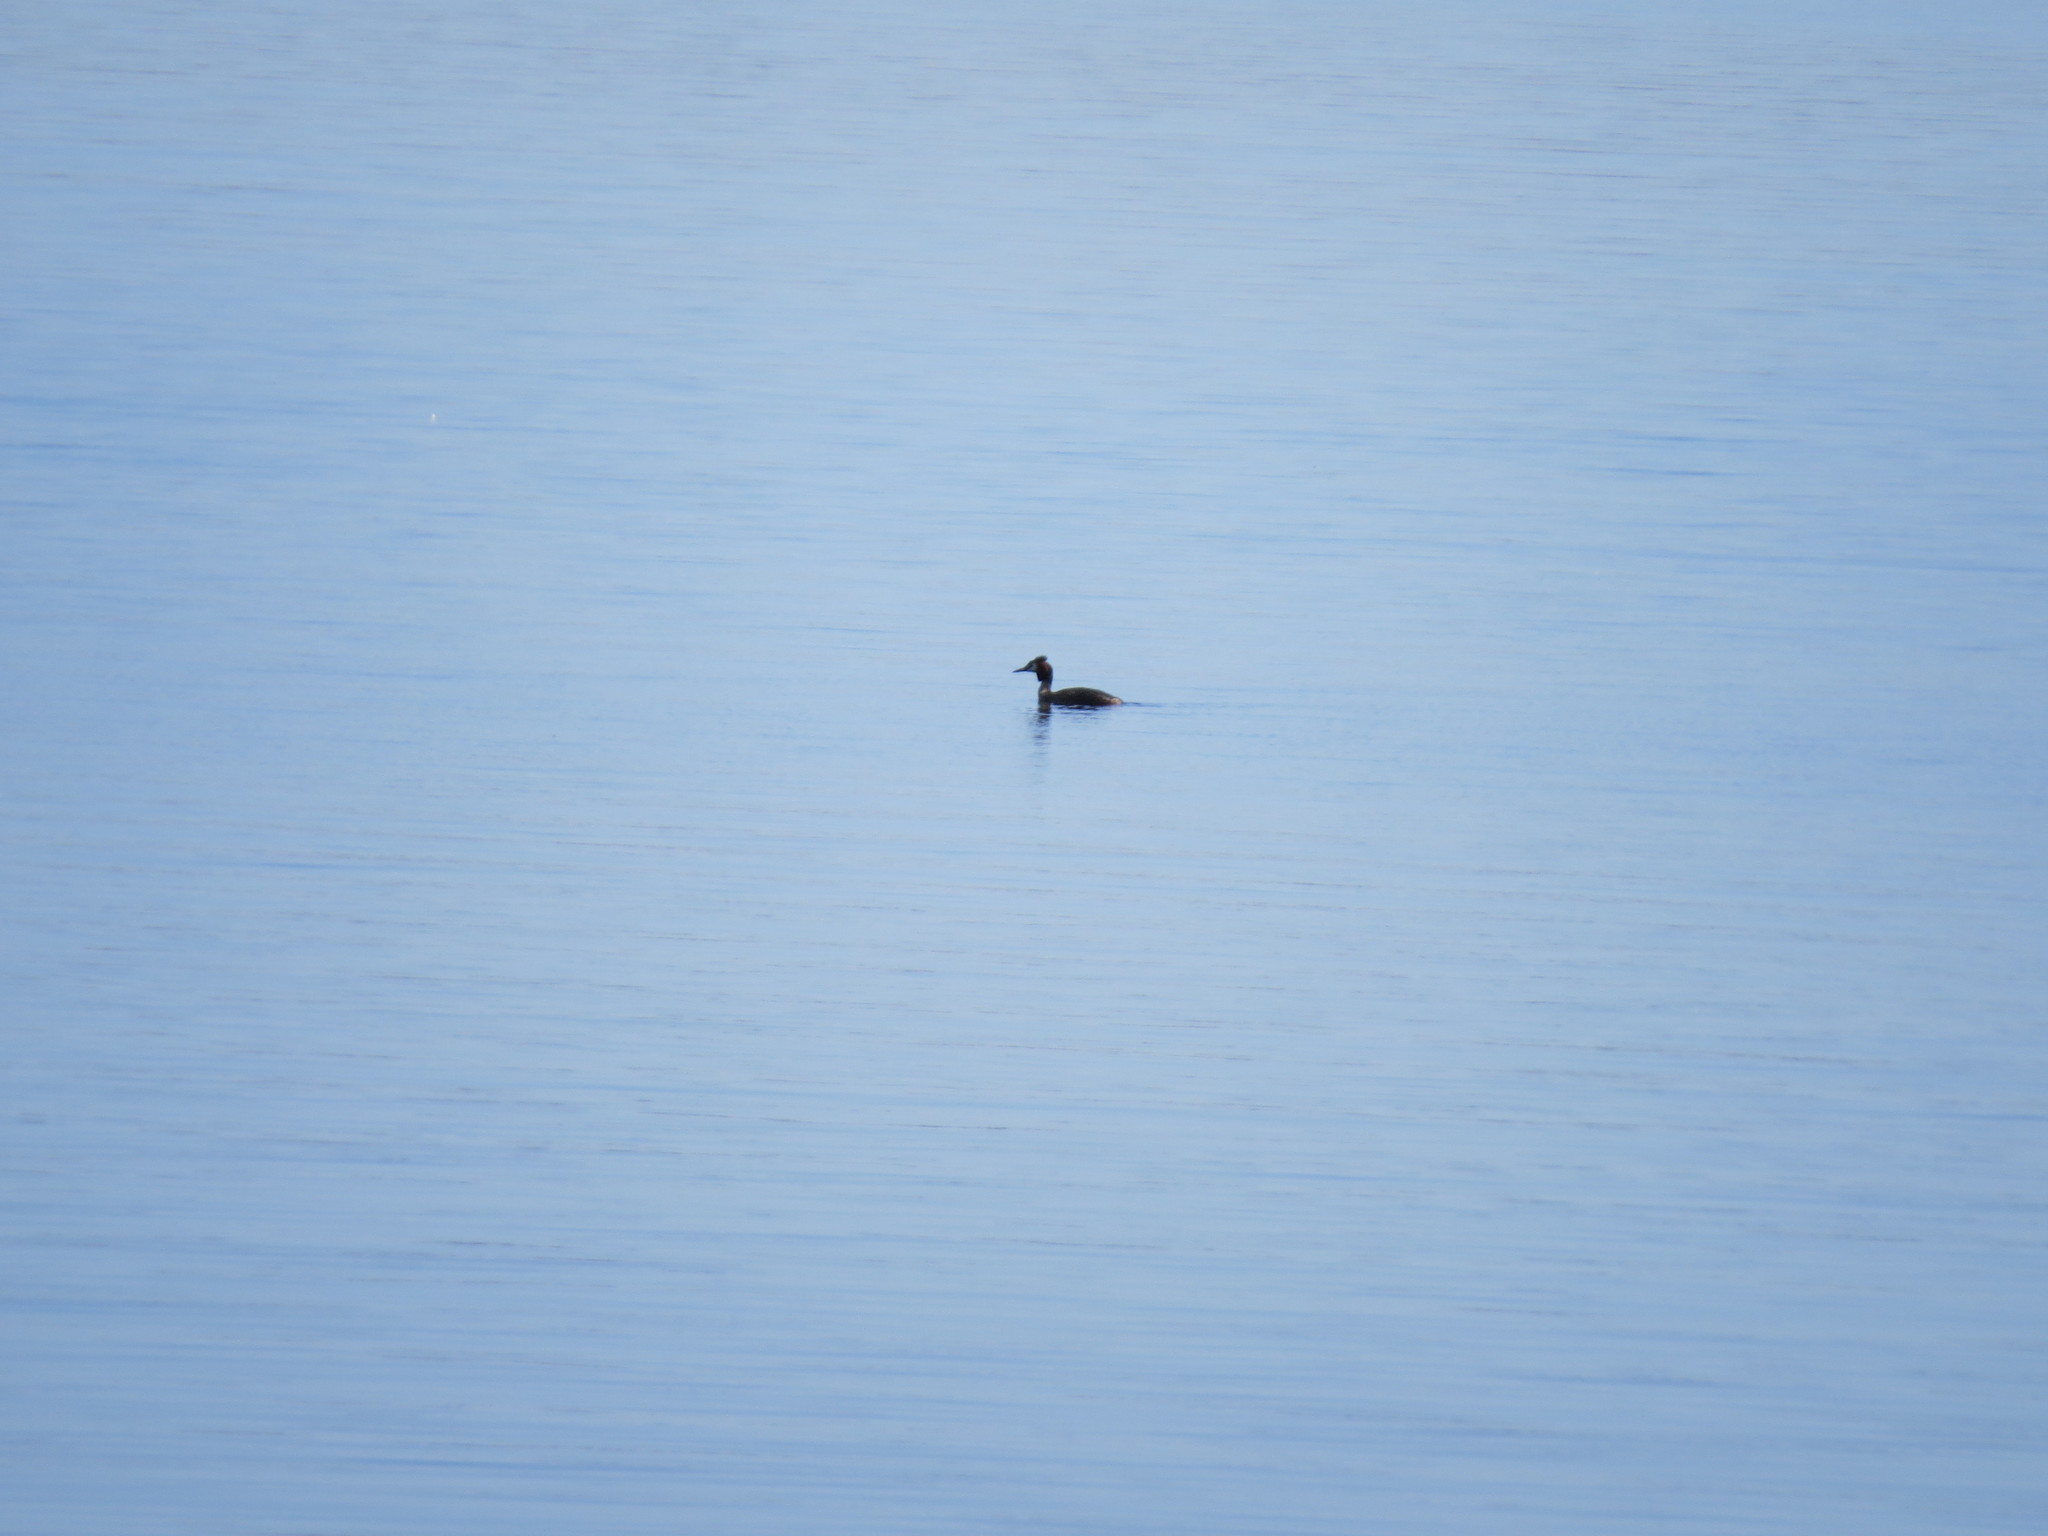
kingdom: Animalia
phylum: Chordata
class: Aves
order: Podicipediformes
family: Podicipedidae
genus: Podiceps
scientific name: Podiceps cristatus
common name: Great crested grebe
